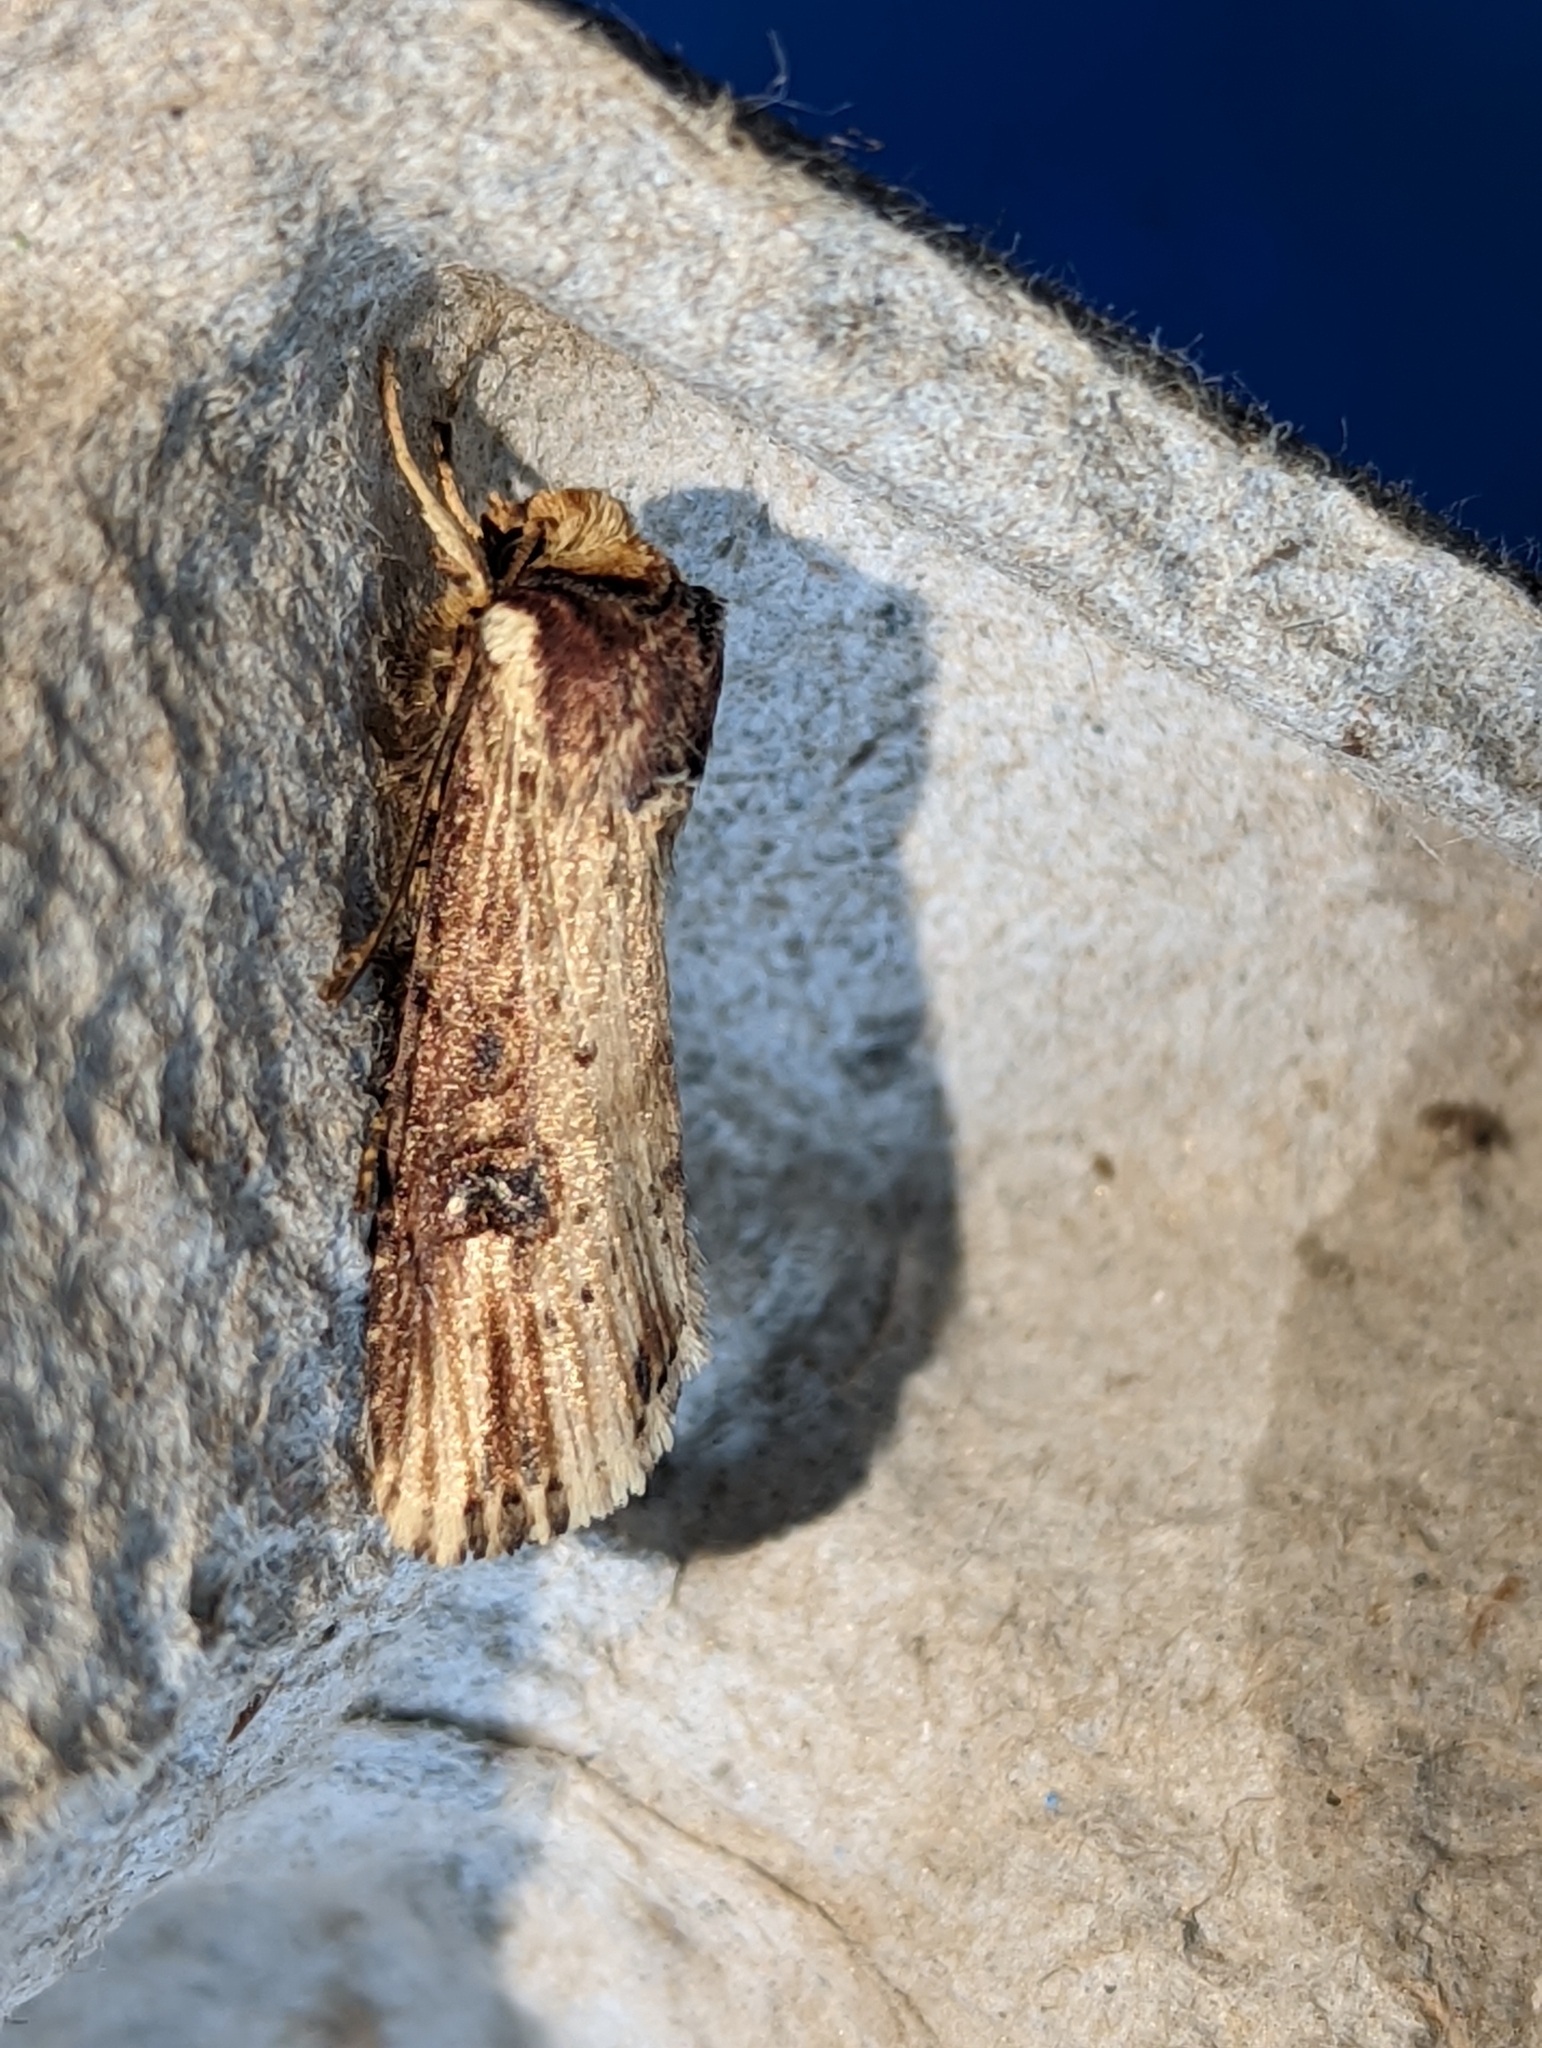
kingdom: Animalia
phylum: Arthropoda
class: Insecta
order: Lepidoptera
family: Noctuidae
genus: Axylia
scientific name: Axylia putris
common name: Flame
